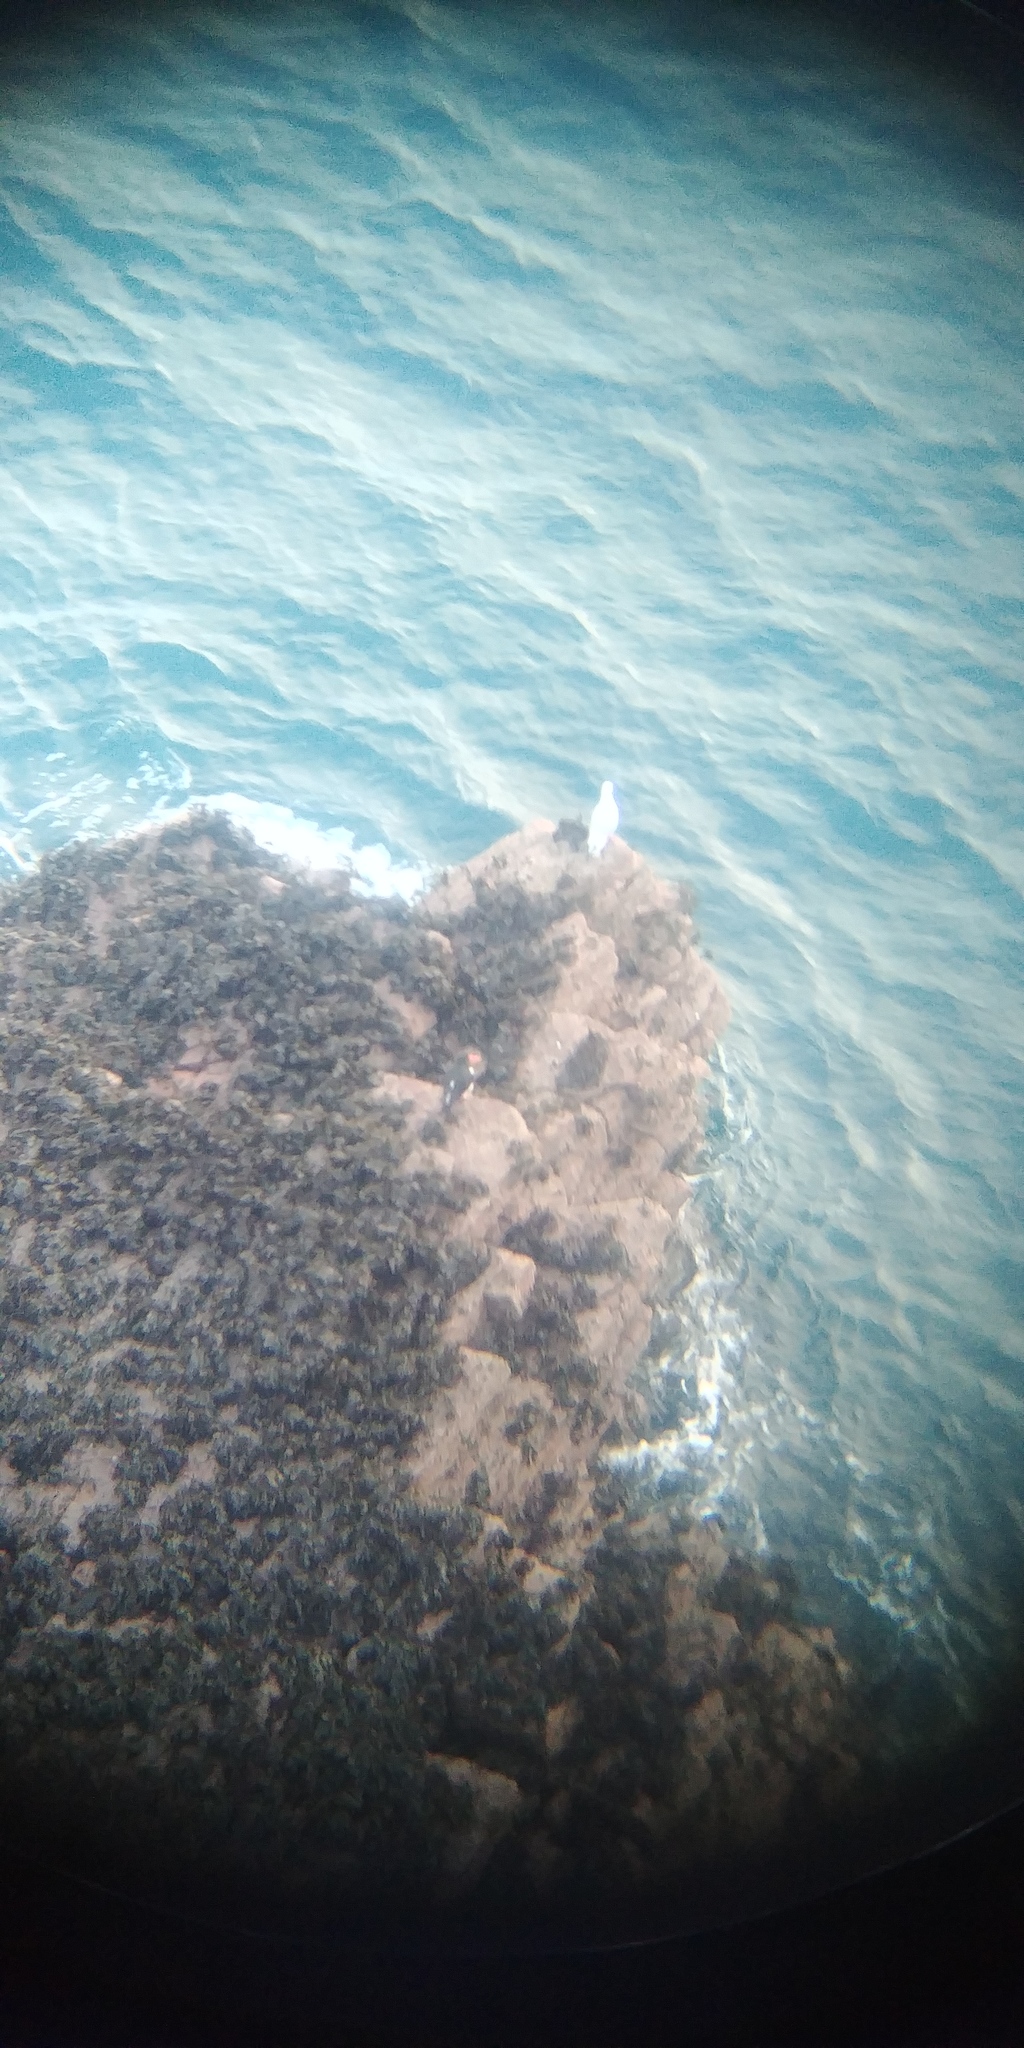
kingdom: Animalia
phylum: Chordata
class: Aves
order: Charadriiformes
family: Haematopodidae
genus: Haematopus
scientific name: Haematopus ostralegus
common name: Eurasian oystercatcher
